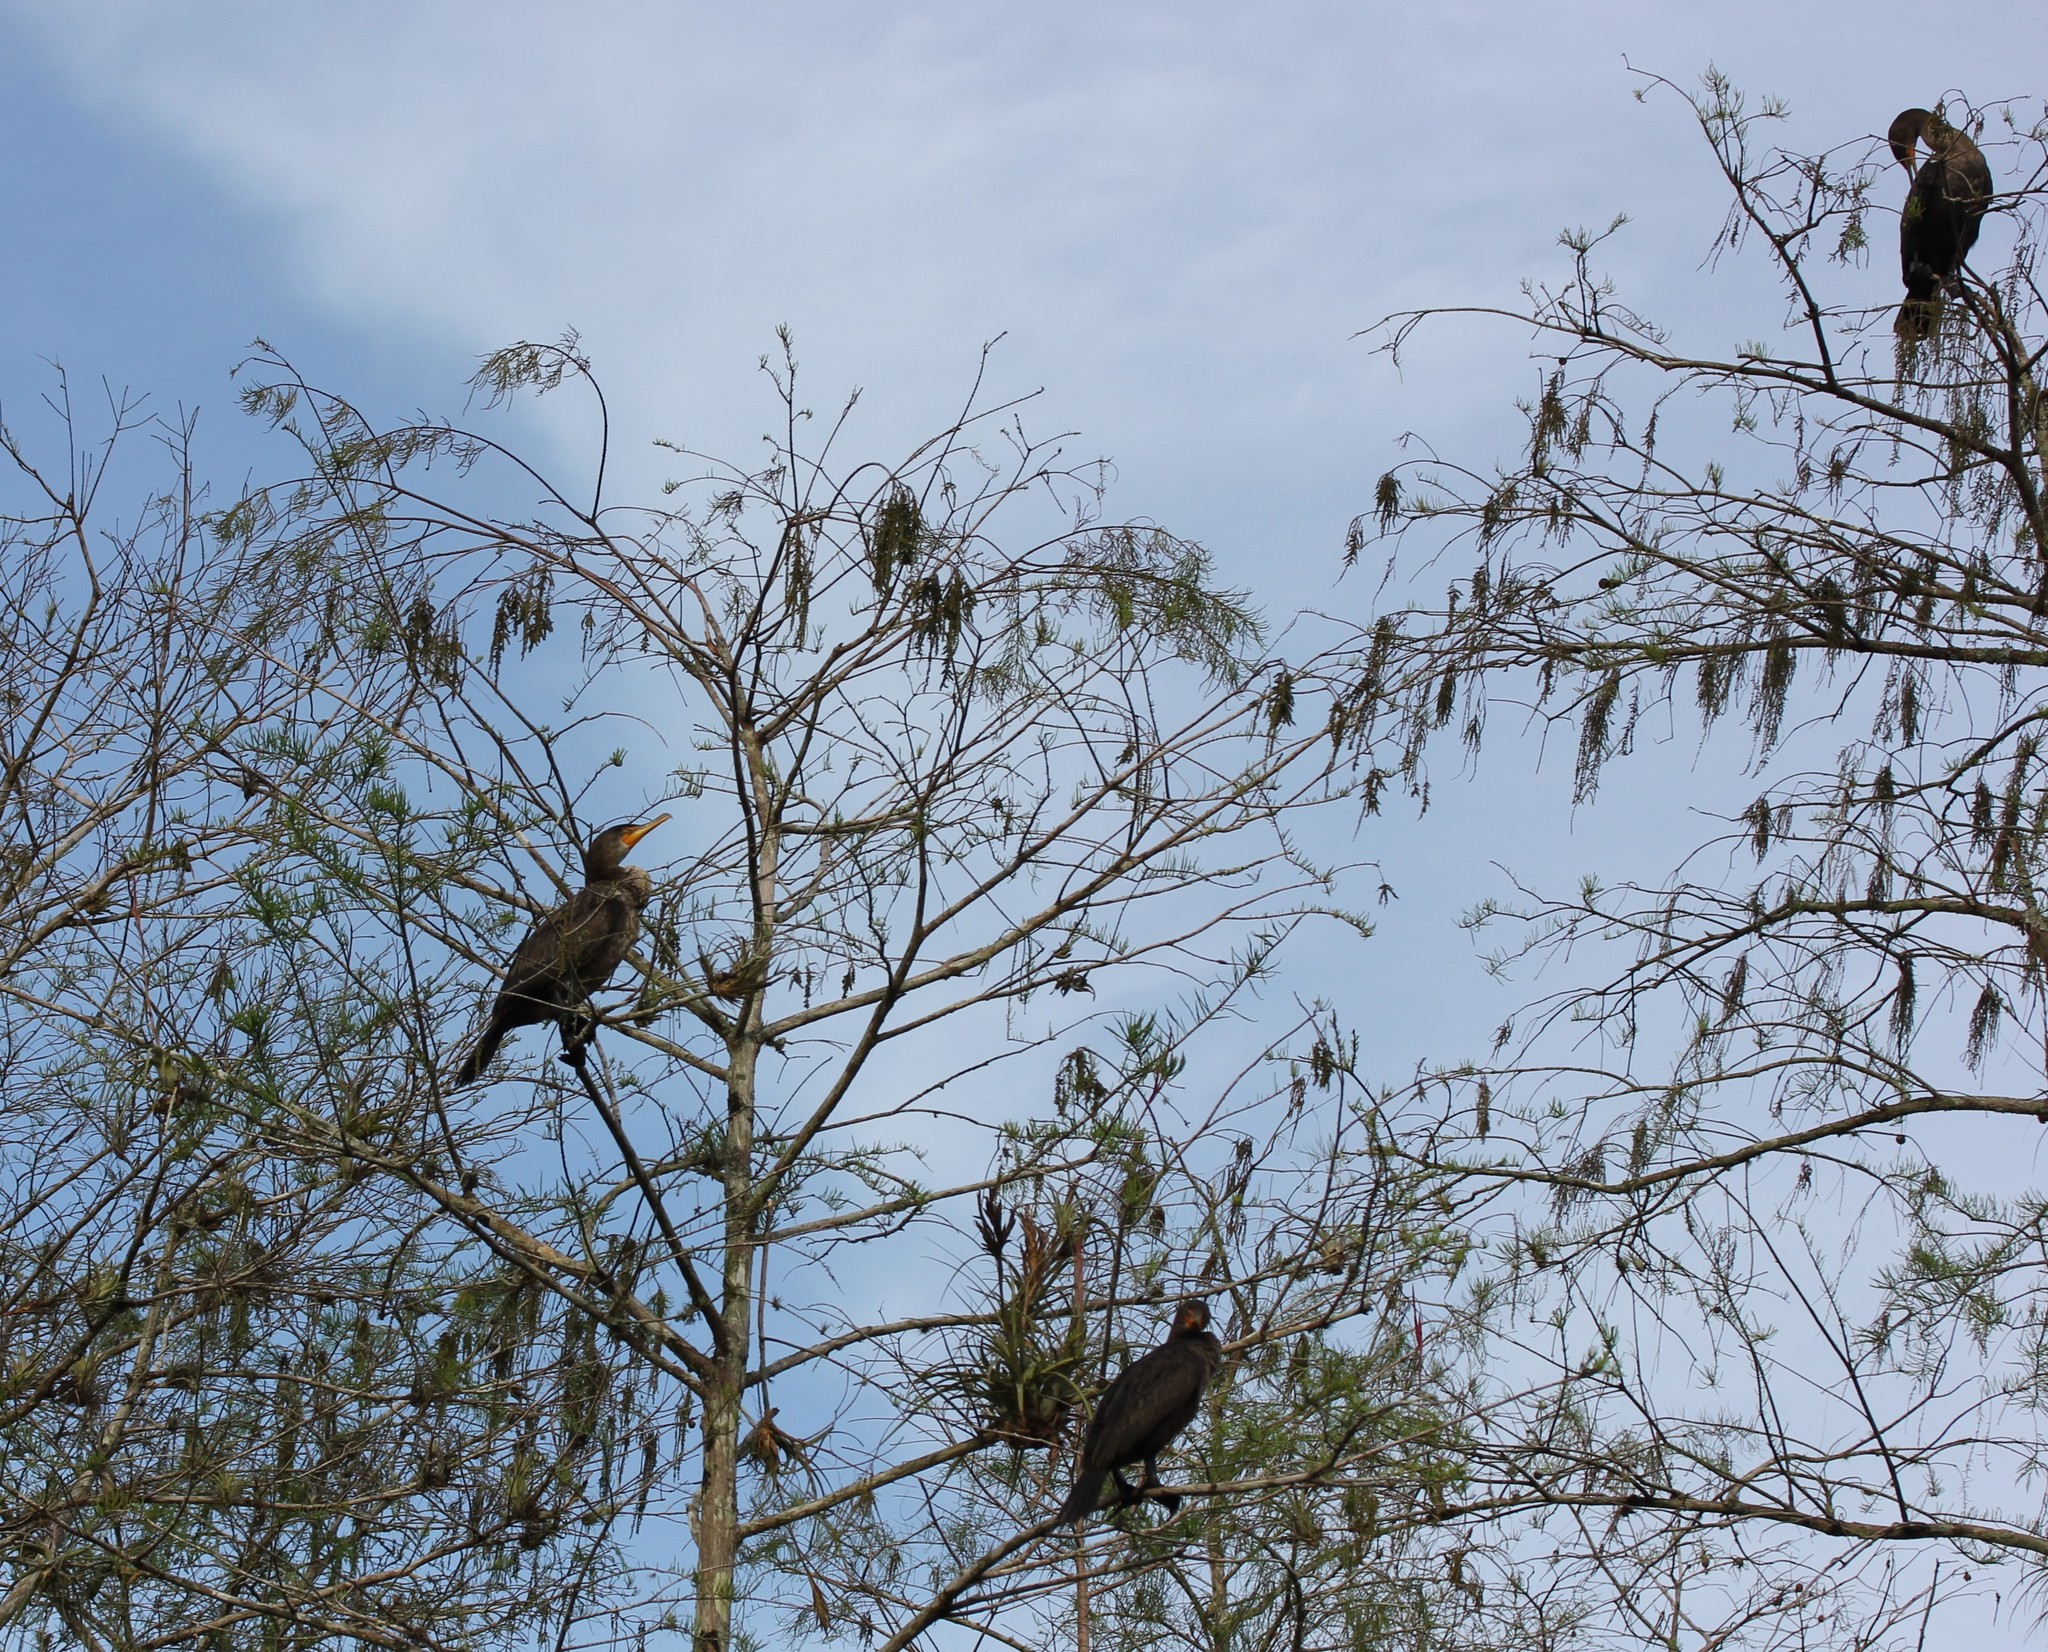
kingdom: Animalia
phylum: Chordata
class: Aves
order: Suliformes
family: Phalacrocoracidae
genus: Phalacrocorax
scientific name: Phalacrocorax auritus
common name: Double-crested cormorant
